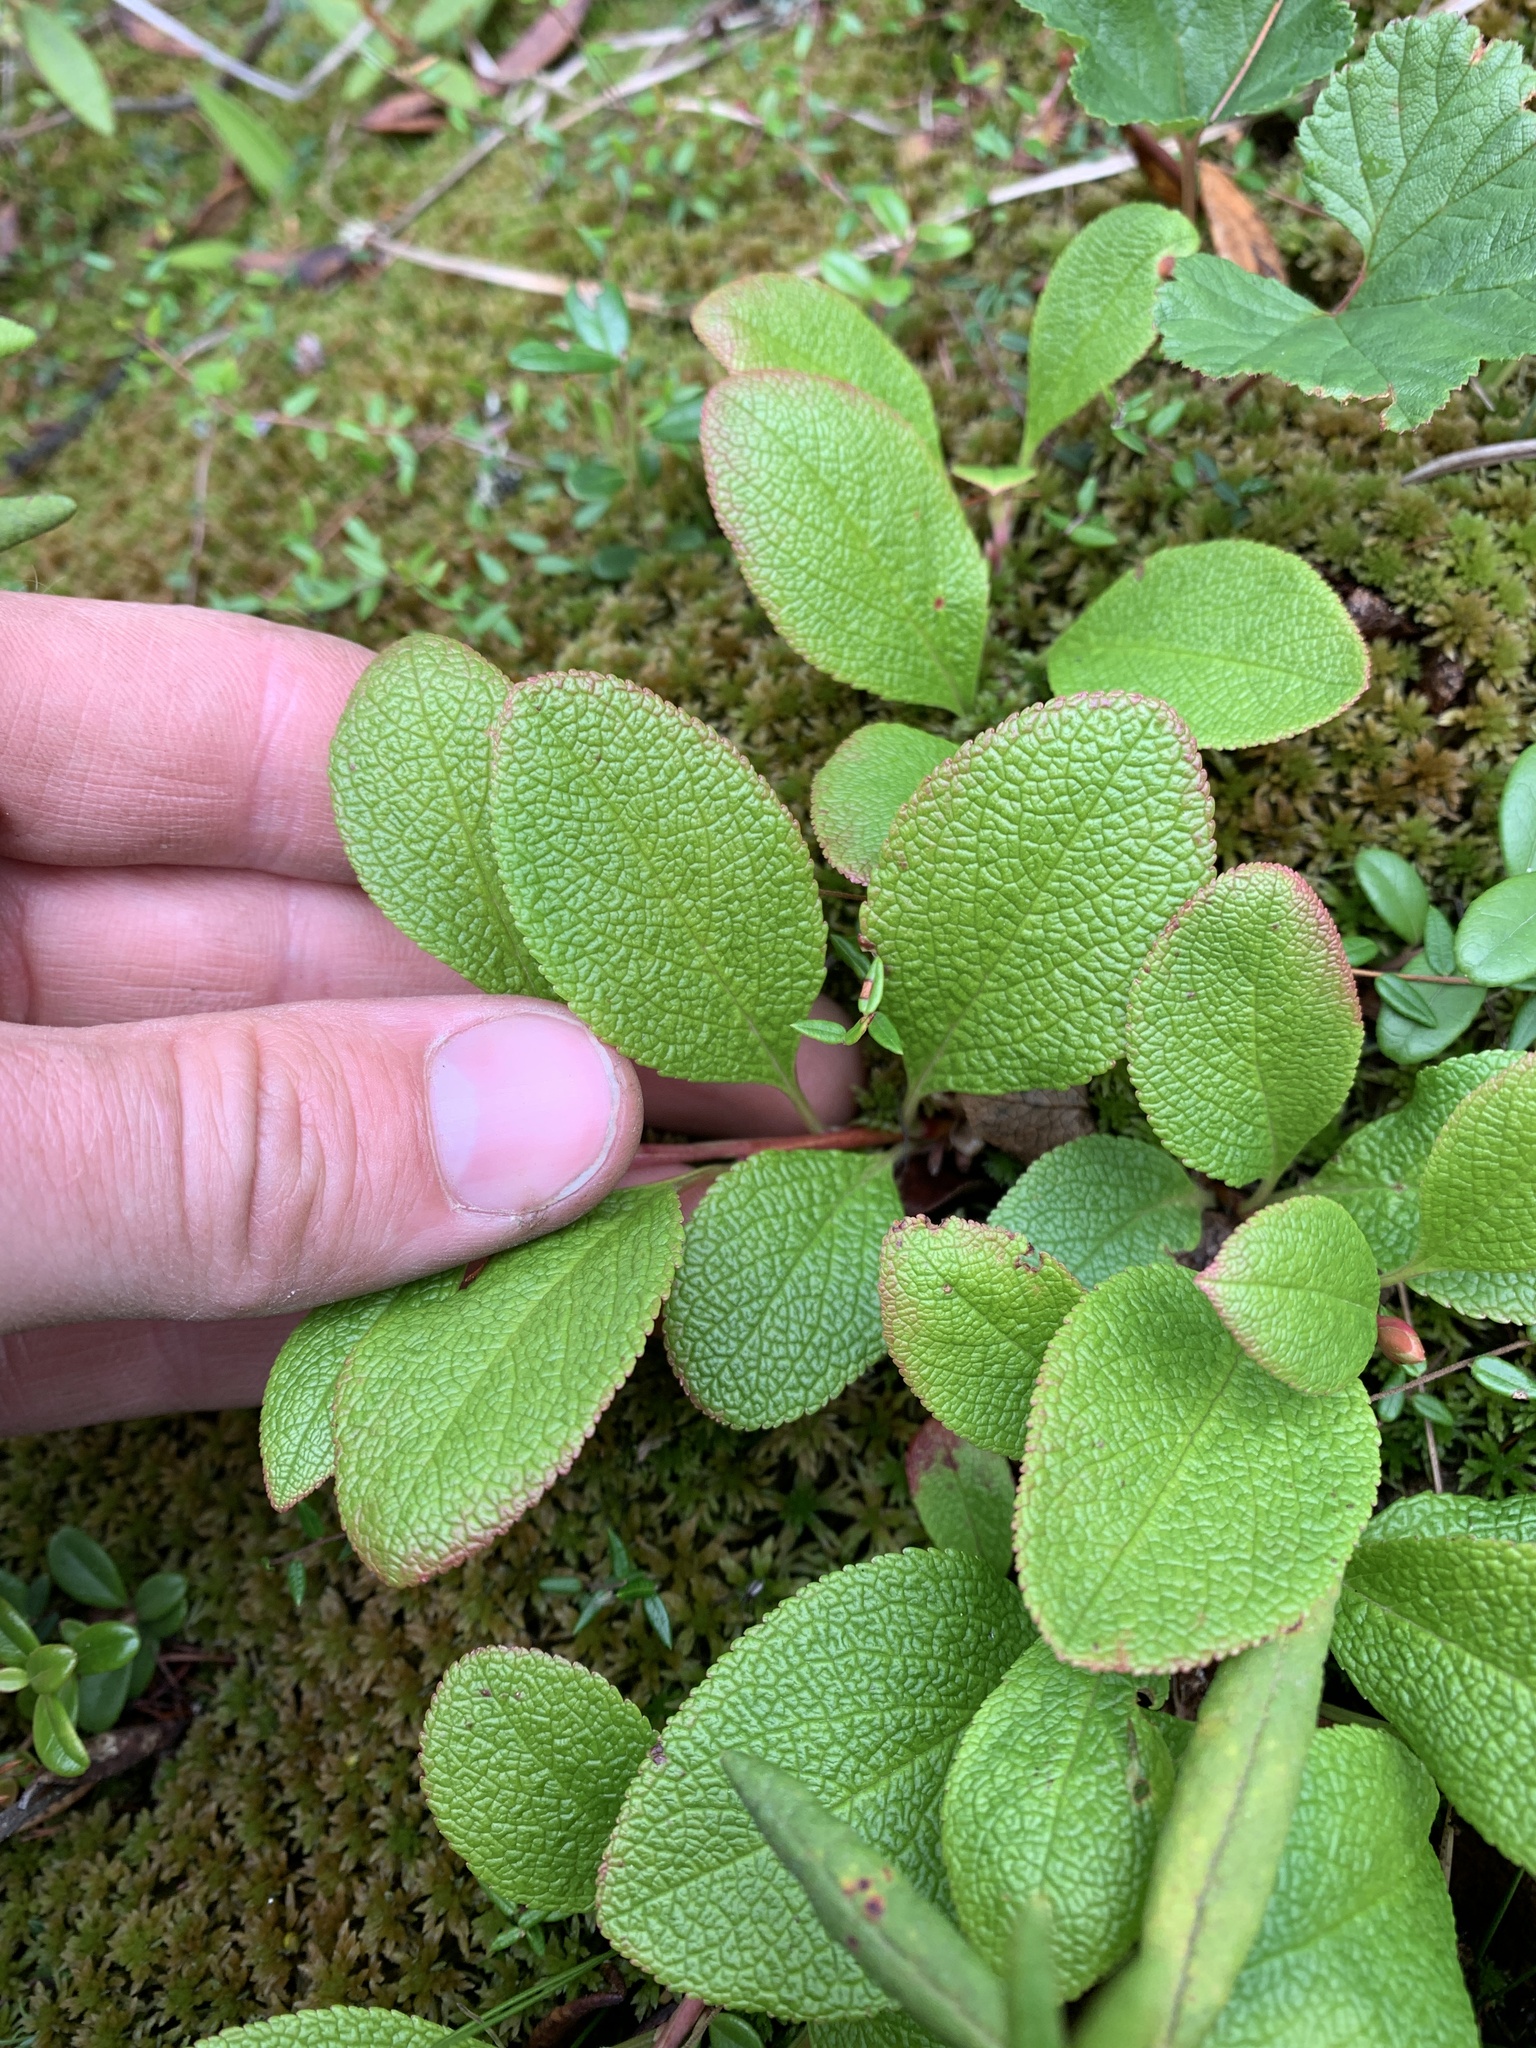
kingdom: Plantae
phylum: Tracheophyta
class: Magnoliopsida
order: Ericales
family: Ericaceae
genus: Arctostaphylos
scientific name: Arctostaphylos rubra
